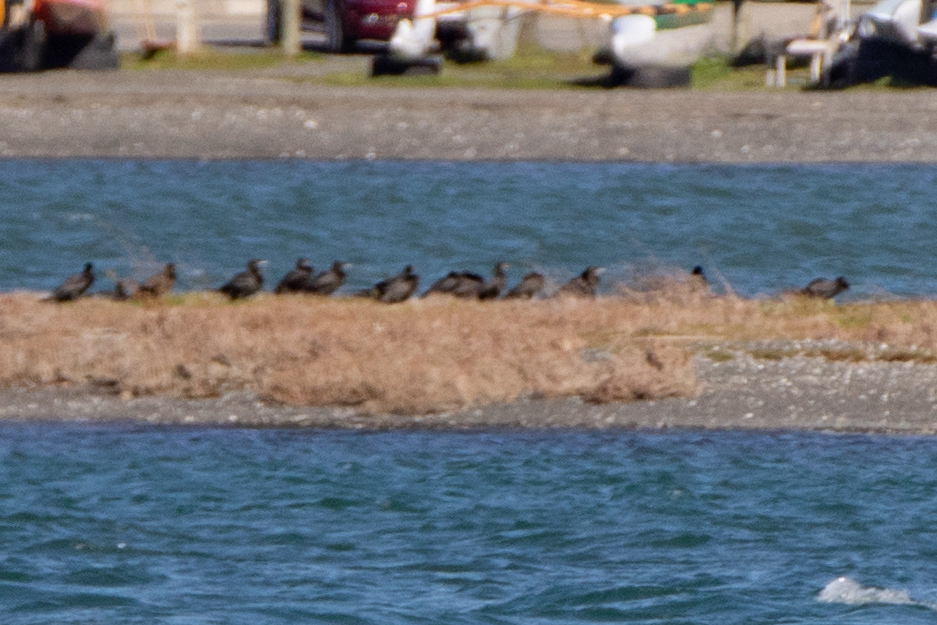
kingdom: Animalia
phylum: Chordata
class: Aves
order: Suliformes
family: Phalacrocoracidae
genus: Phalacrocorax
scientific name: Phalacrocorax sulcirostris
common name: Little black cormorant
